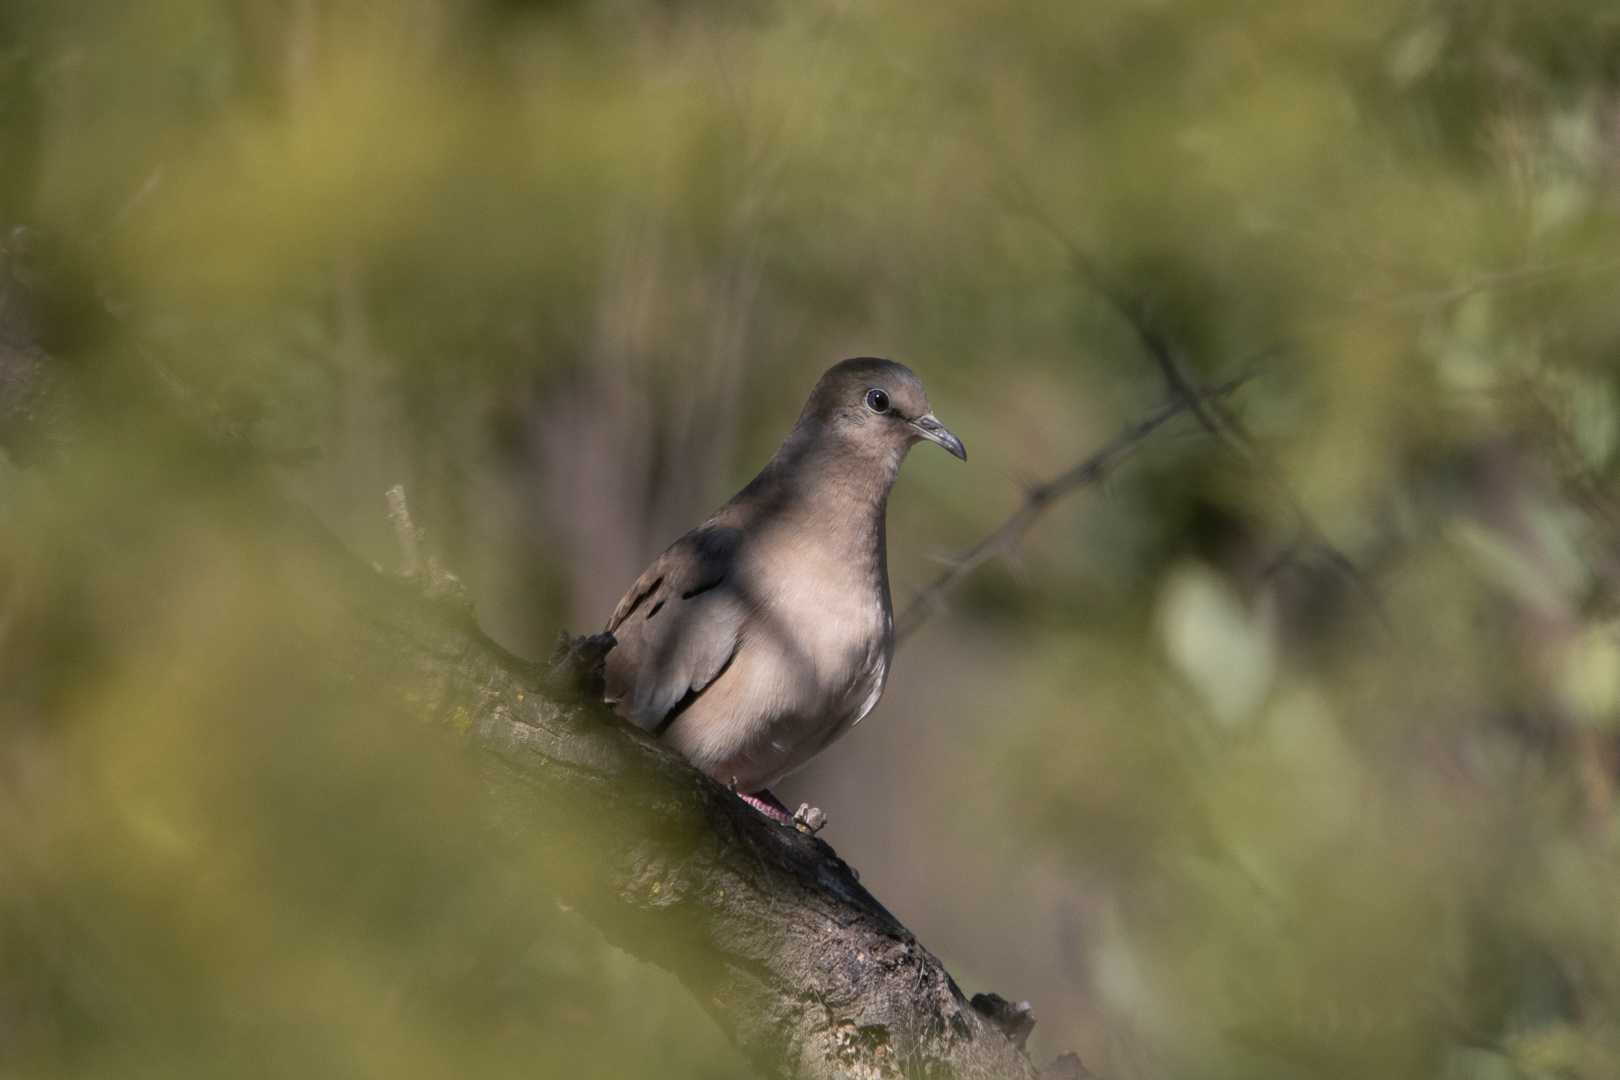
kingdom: Animalia
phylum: Chordata
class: Aves
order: Columbiformes
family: Columbidae
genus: Columbina
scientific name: Columbina picui
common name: Picui ground dove
